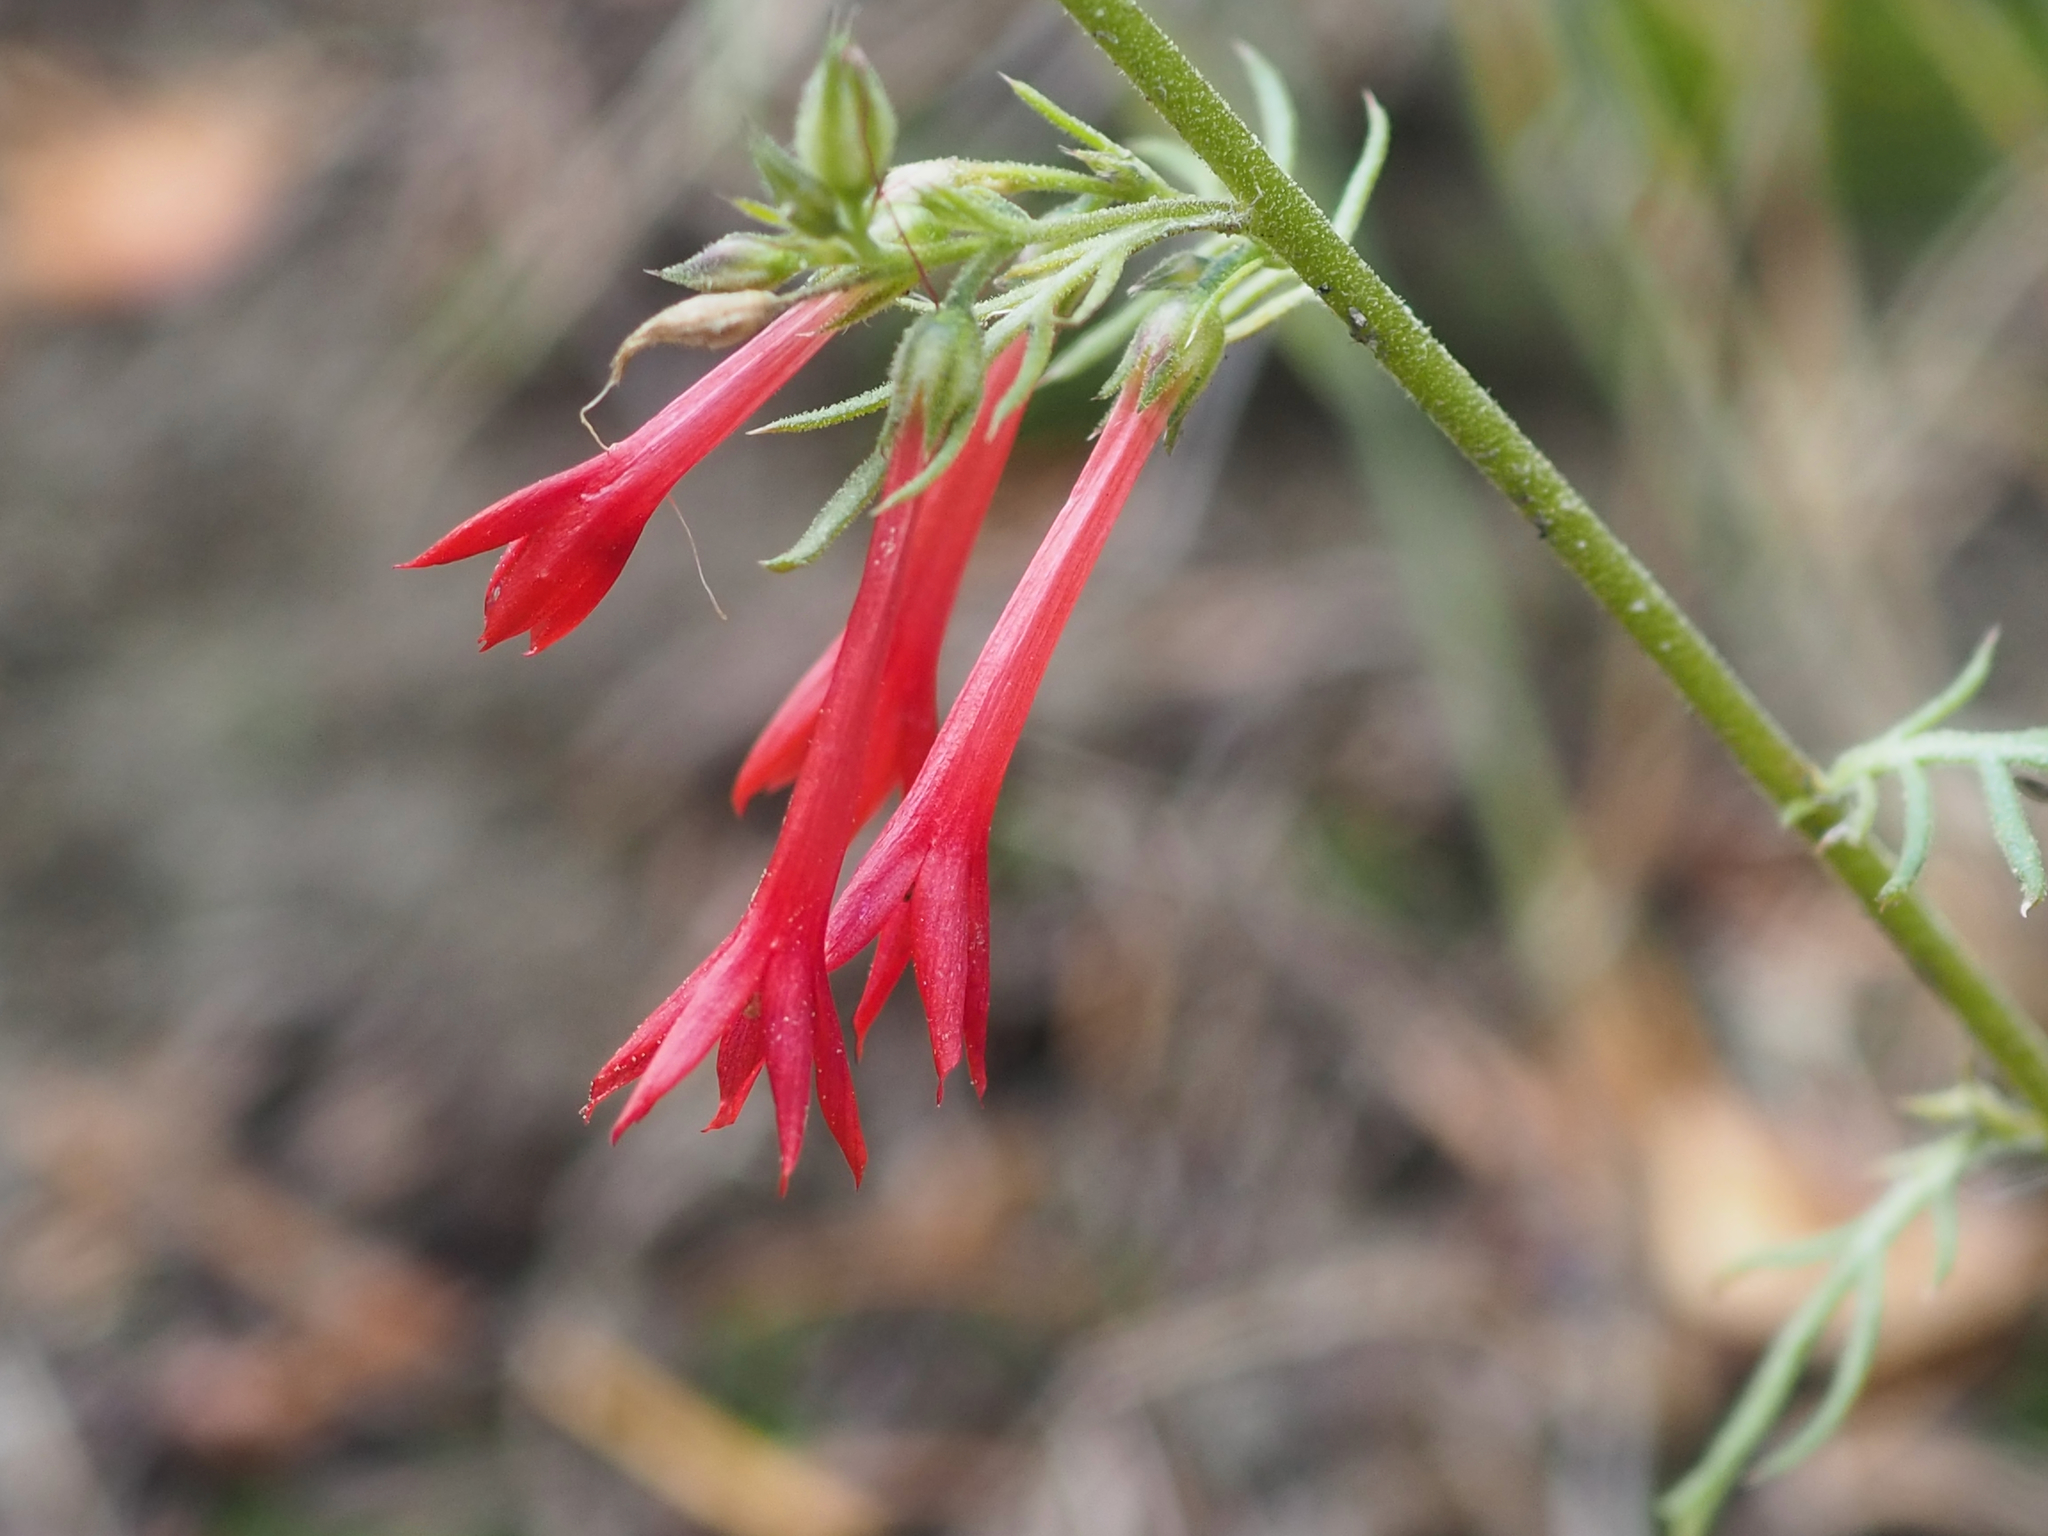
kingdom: Plantae
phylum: Tracheophyta
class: Magnoliopsida
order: Ericales
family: Polemoniaceae
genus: Ipomopsis
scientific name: Ipomopsis aggregata
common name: Scarlet gilia
